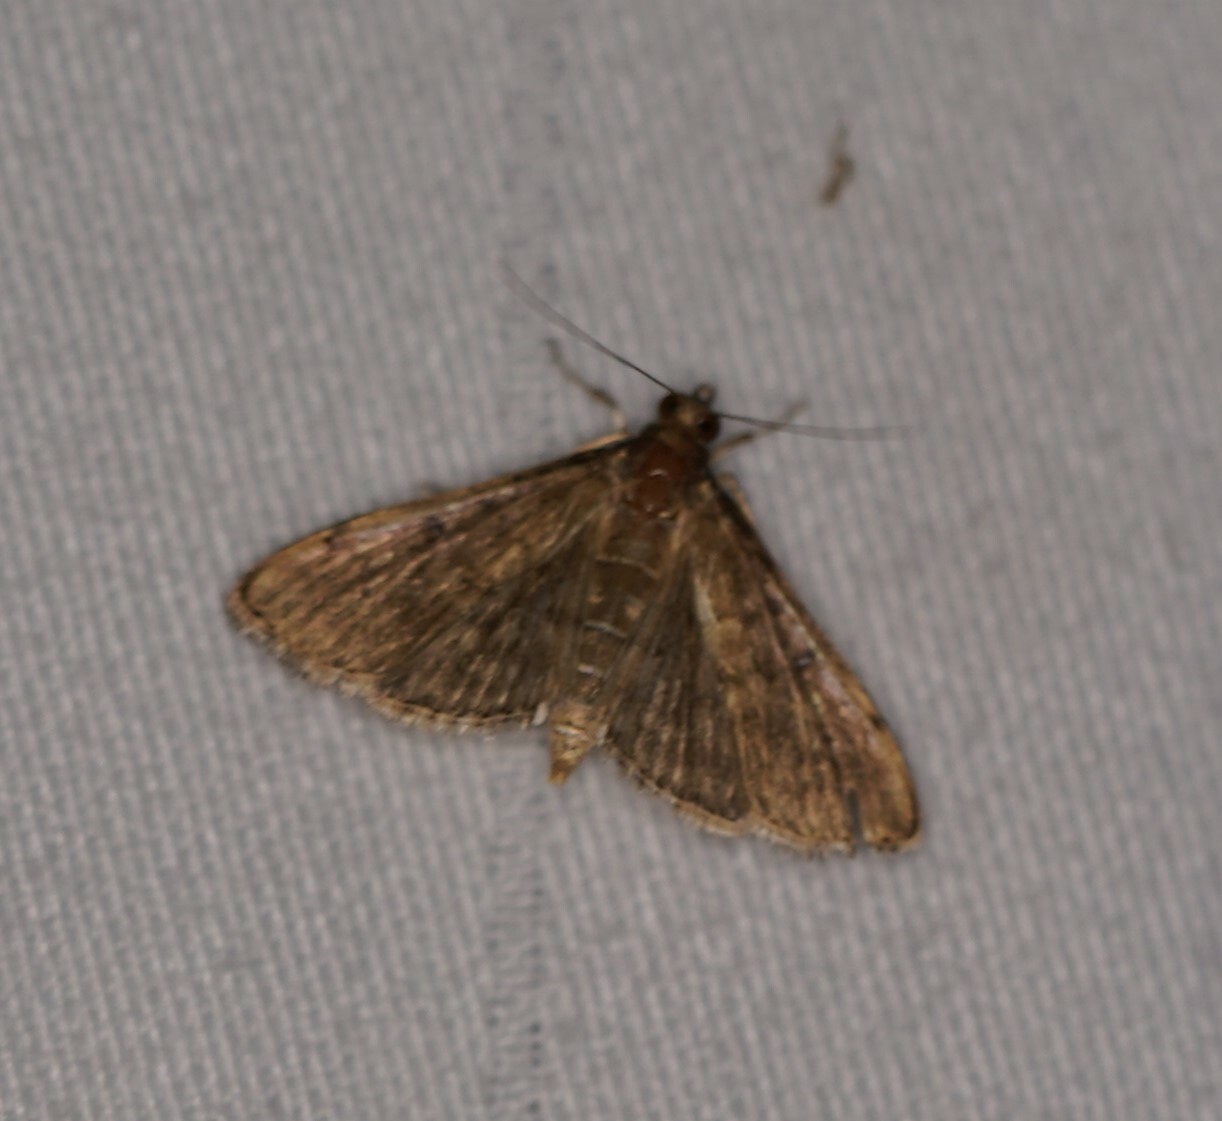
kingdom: Animalia
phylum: Arthropoda
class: Insecta
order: Lepidoptera
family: Crambidae
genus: Herpetogramma
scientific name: Herpetogramma phaeopteralis
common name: Dusky herpetogramma moth
